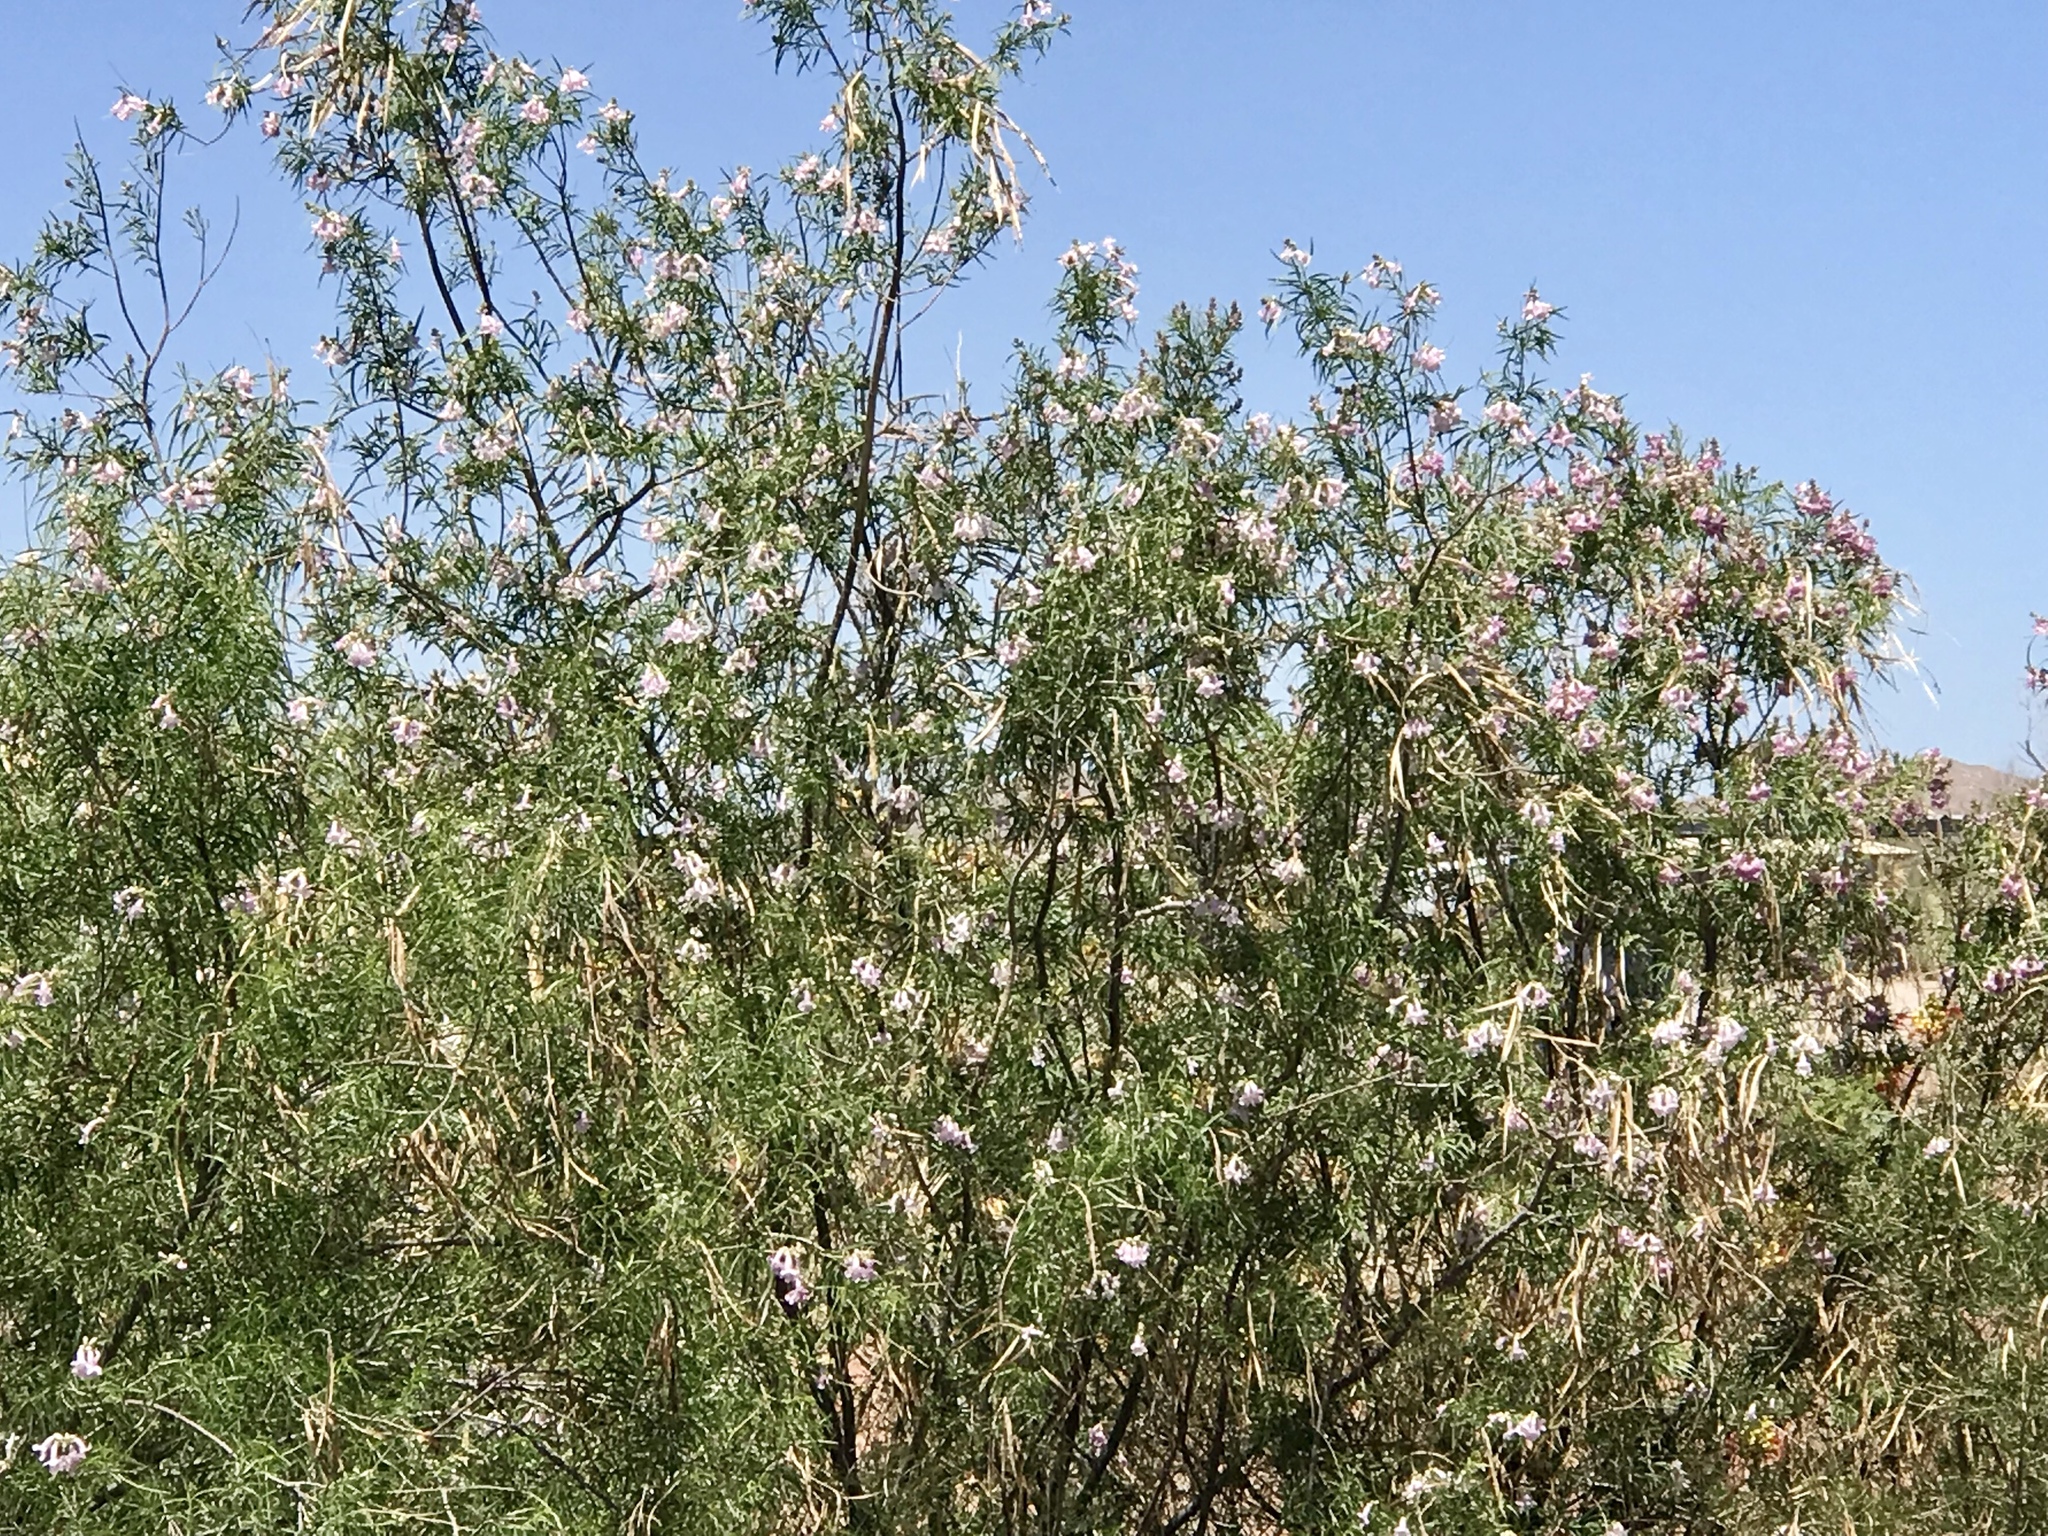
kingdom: Plantae
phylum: Tracheophyta
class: Magnoliopsida
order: Lamiales
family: Bignoniaceae
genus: Chilopsis
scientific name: Chilopsis linearis
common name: Desert-willow
